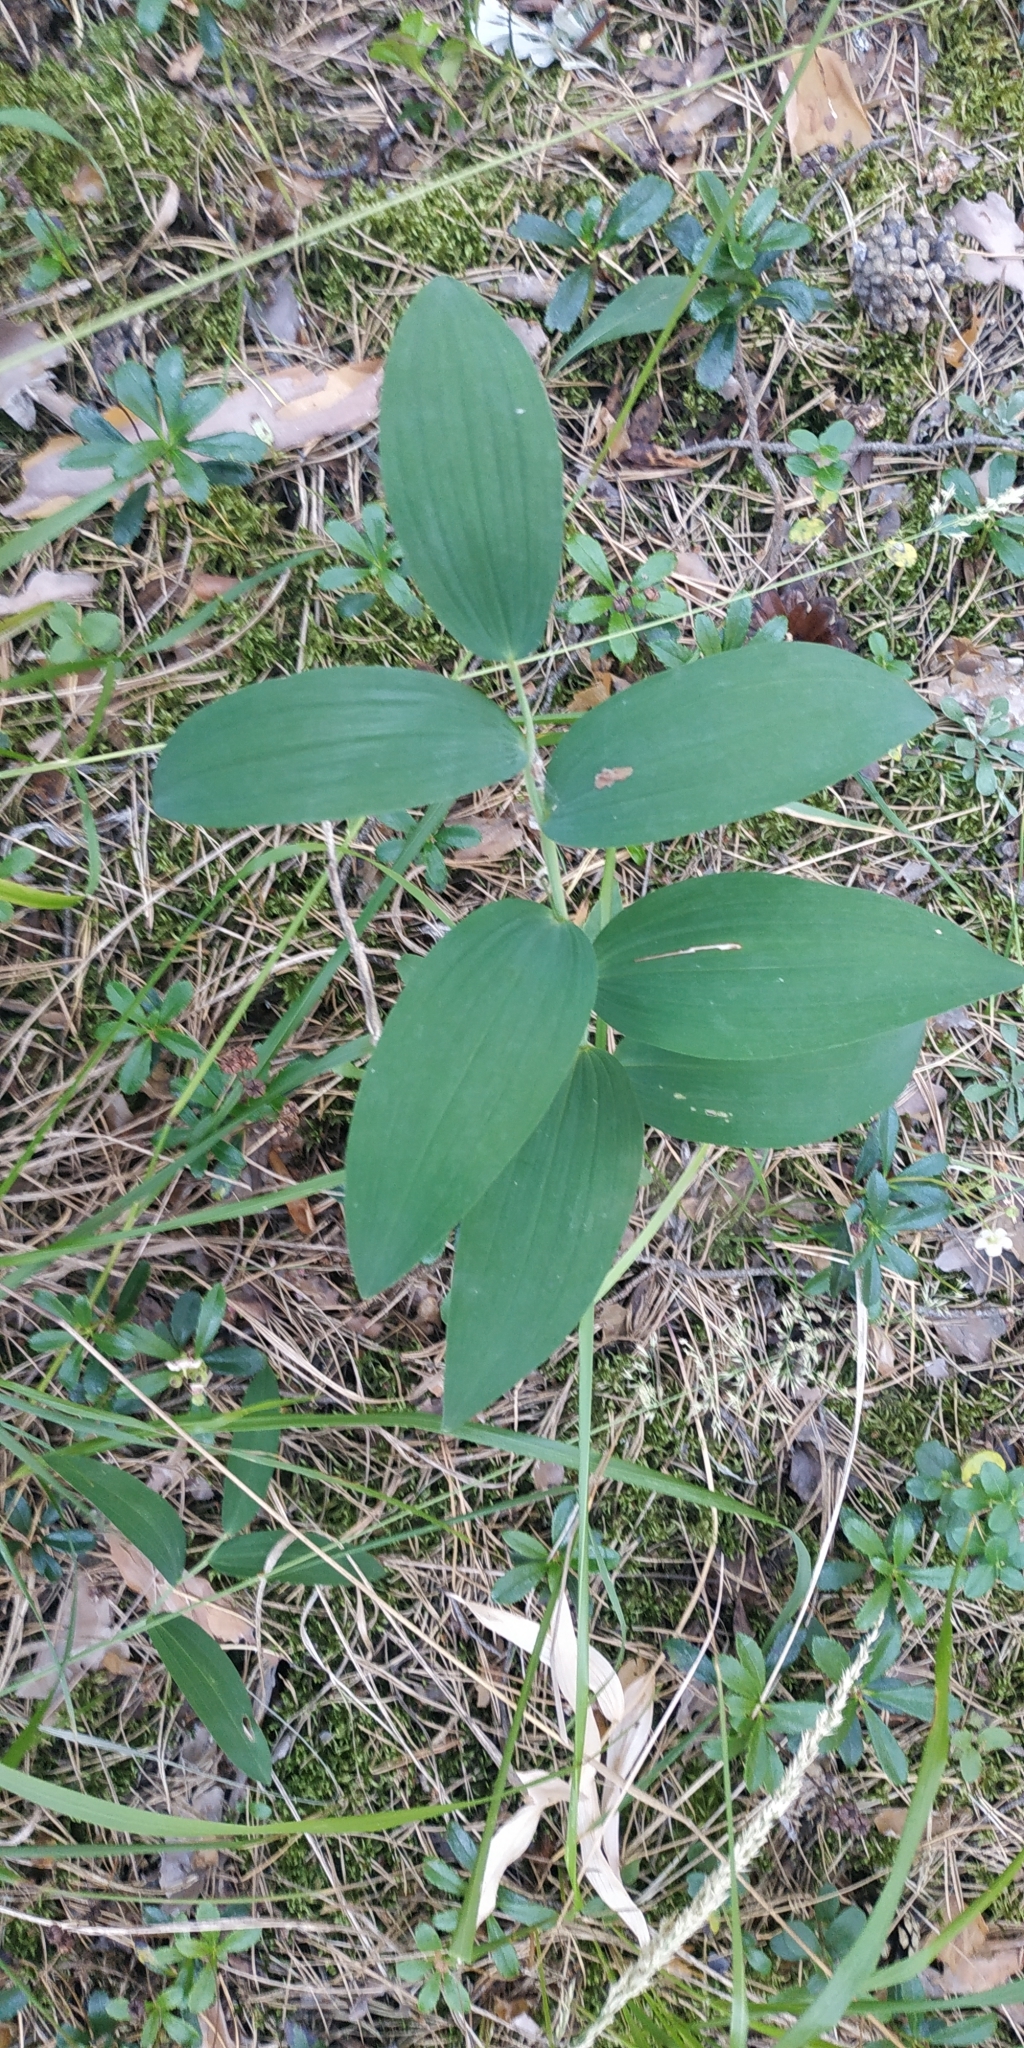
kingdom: Plantae
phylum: Tracheophyta
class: Liliopsida
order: Asparagales
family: Asparagaceae
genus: Polygonatum
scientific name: Polygonatum odoratum
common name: Angular solomon's-seal
